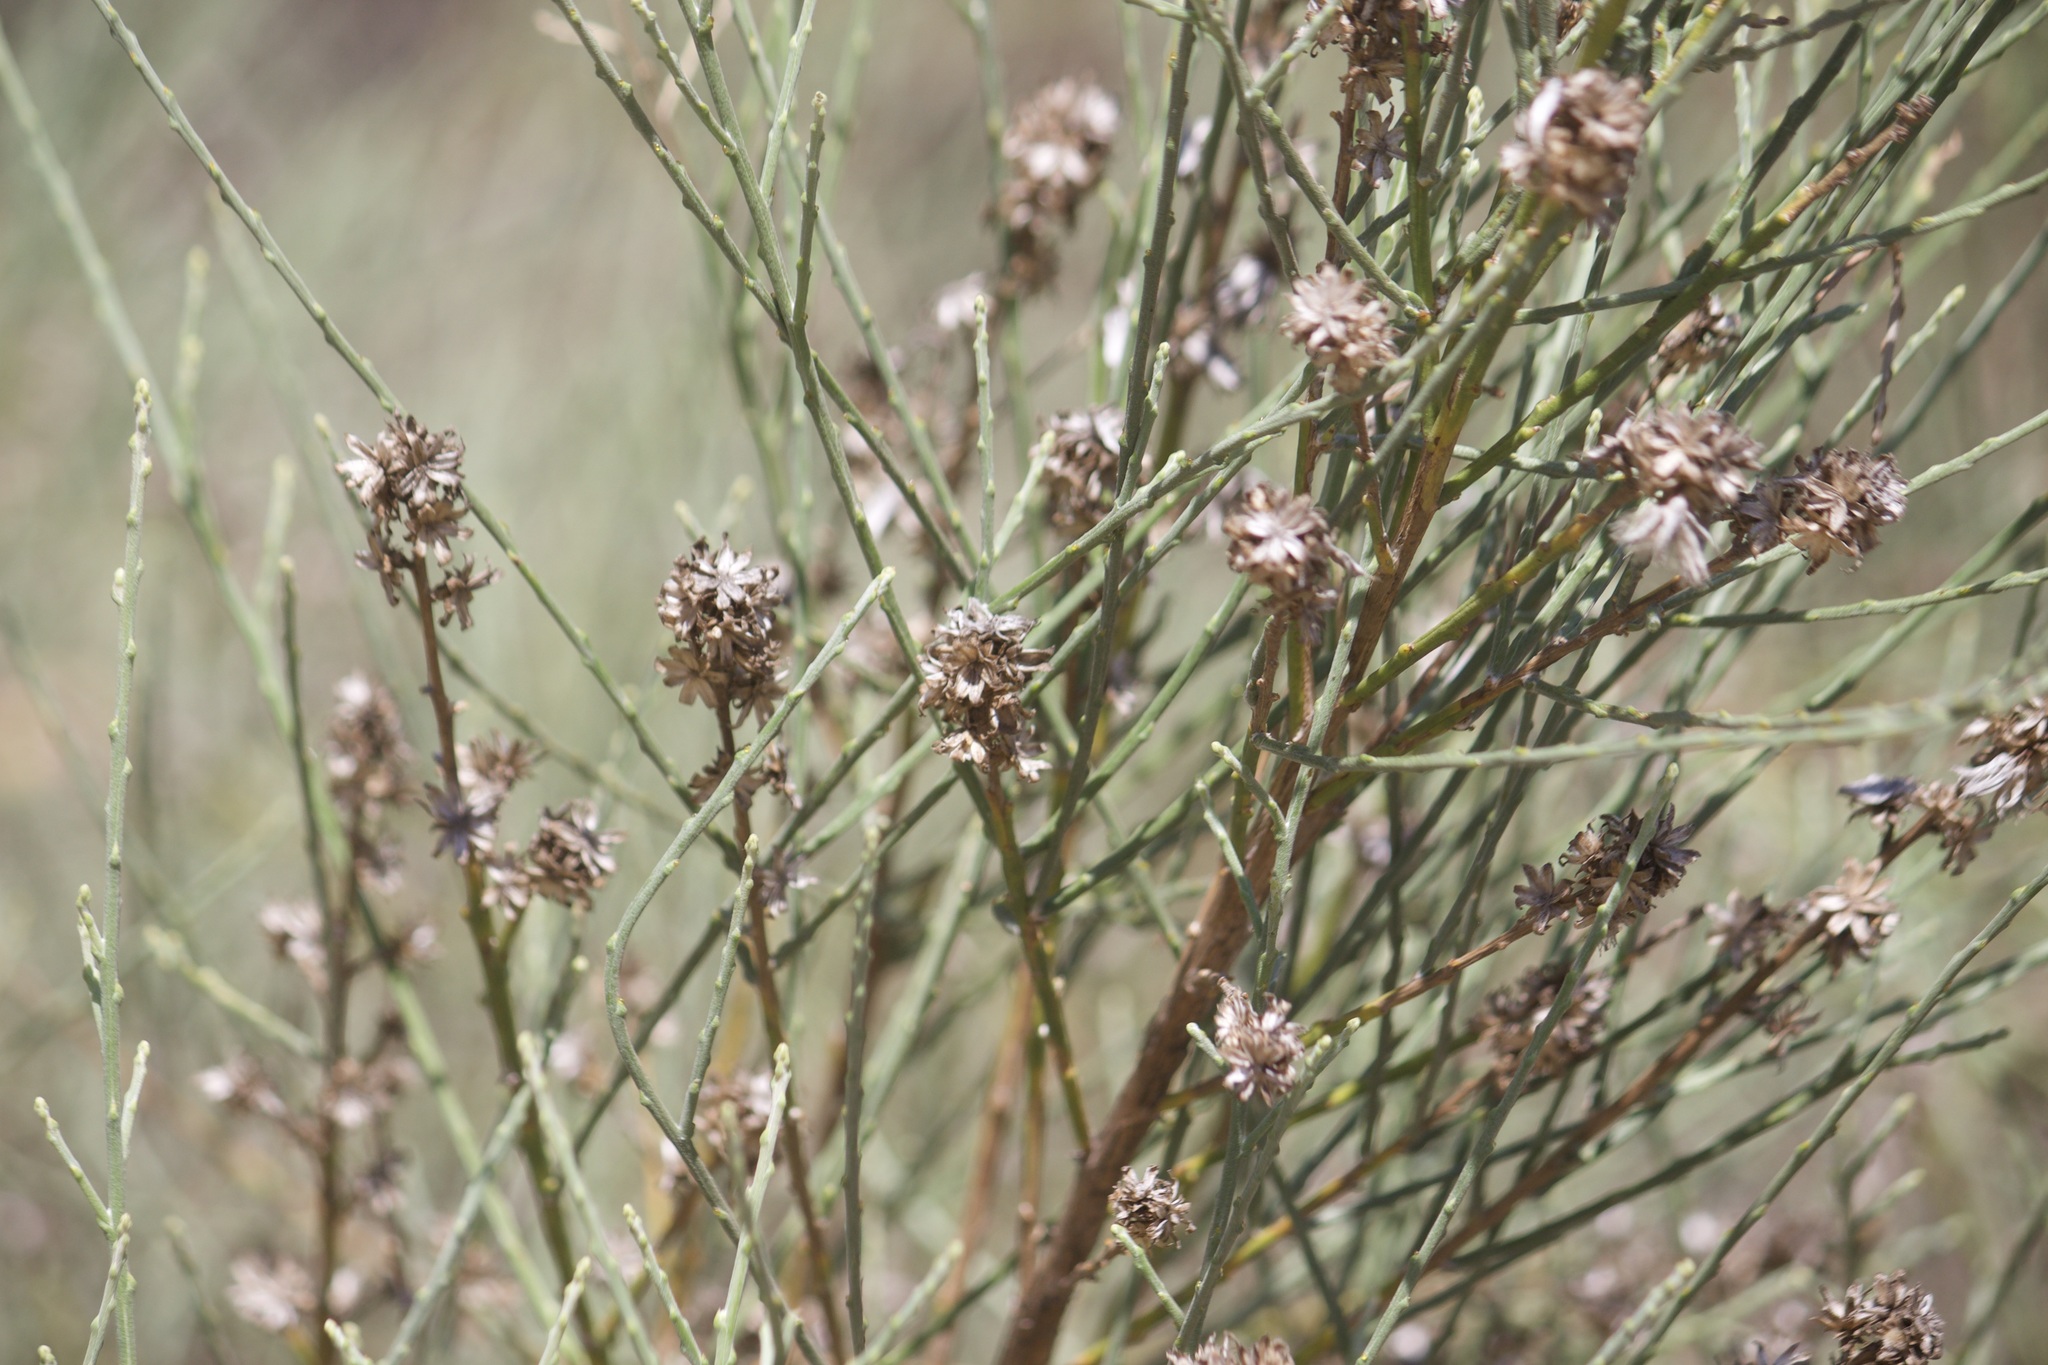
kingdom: Plantae
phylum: Tracheophyta
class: Magnoliopsida
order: Asterales
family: Asteraceae
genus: Lepidospartum
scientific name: Lepidospartum squamatum
